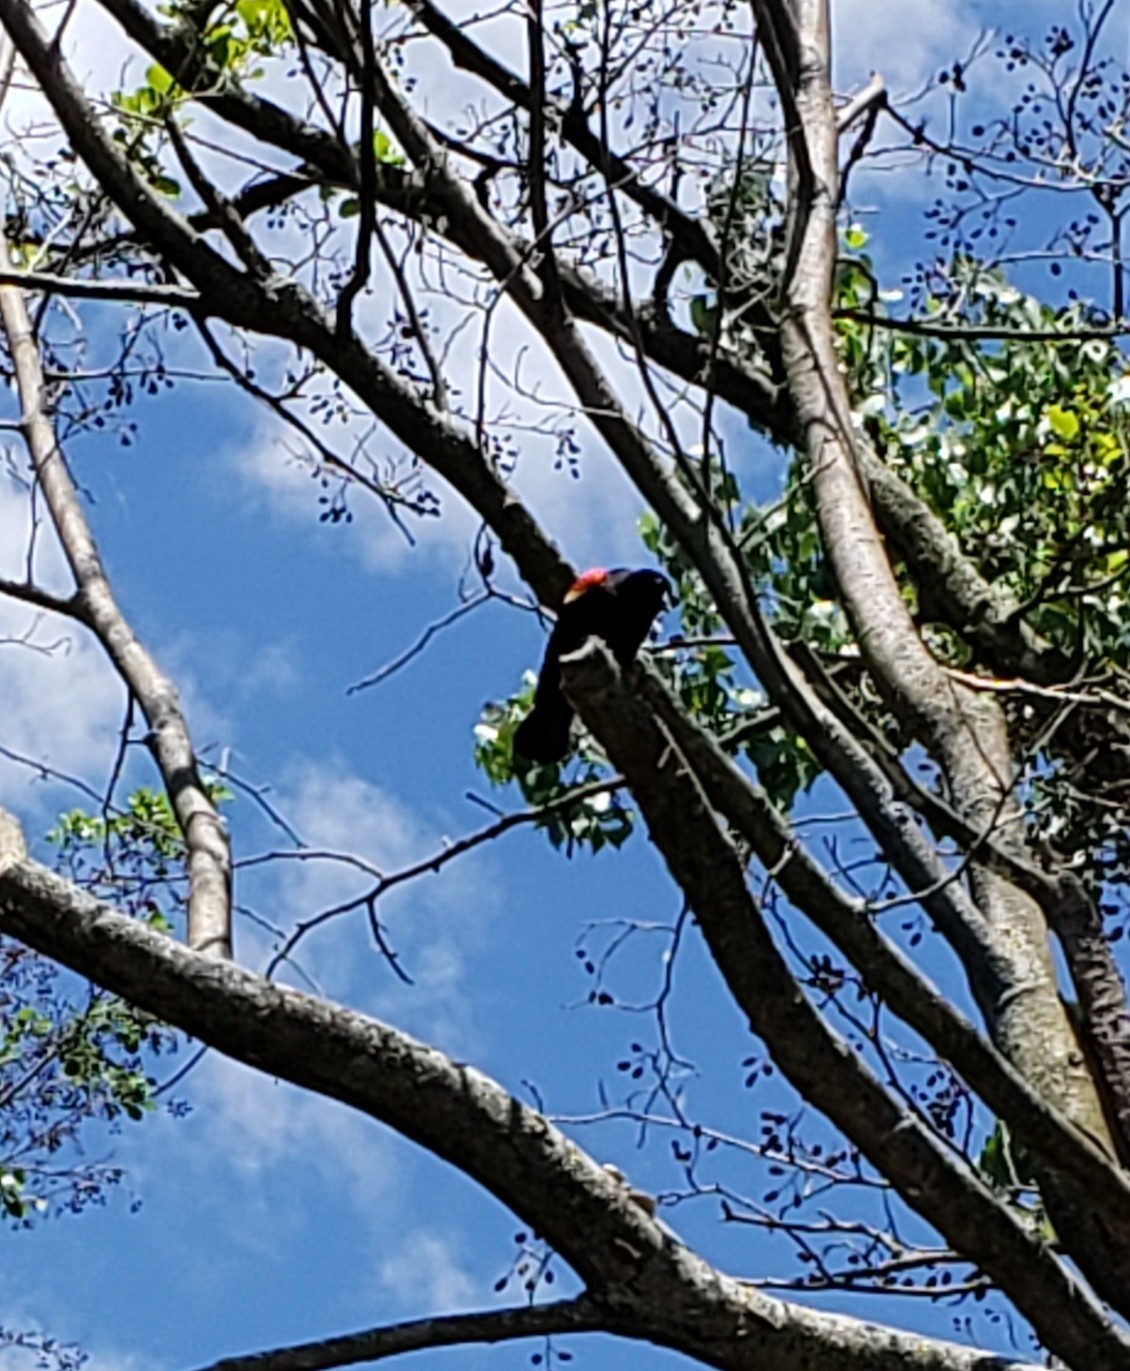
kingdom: Animalia
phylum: Chordata
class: Aves
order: Passeriformes
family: Icteridae
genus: Agelaius
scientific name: Agelaius phoeniceus
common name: Red-winged blackbird
